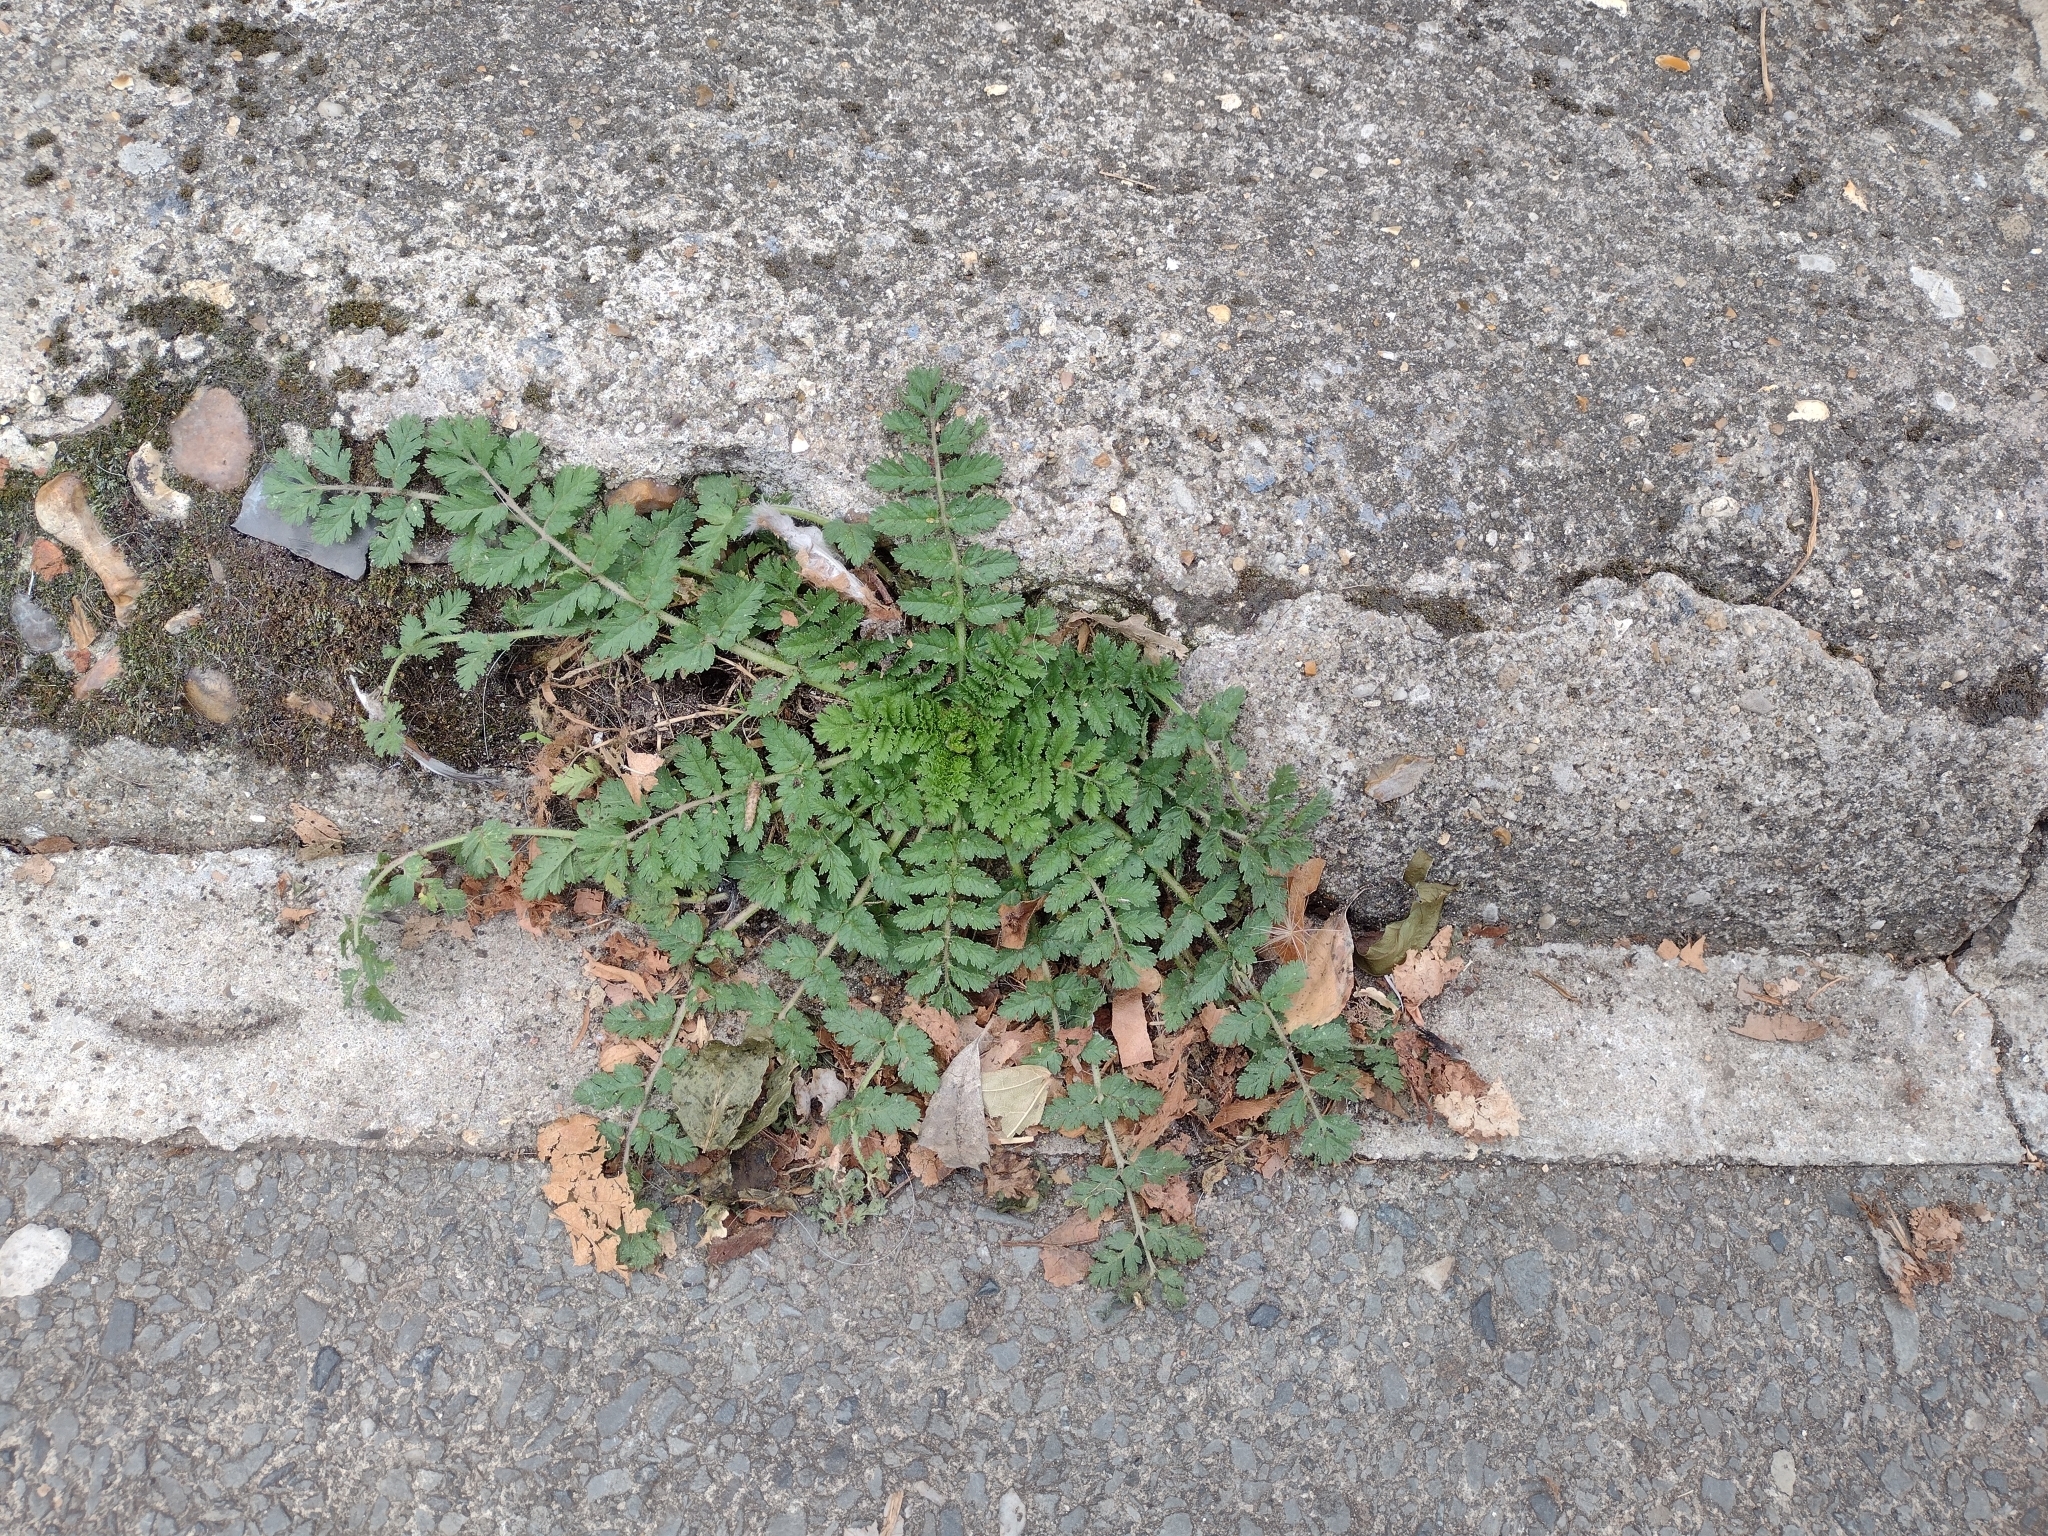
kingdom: Plantae
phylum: Tracheophyta
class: Magnoliopsida
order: Geraniales
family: Geraniaceae
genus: Erodium
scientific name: Erodium moschatum
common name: Musk stork's-bill
